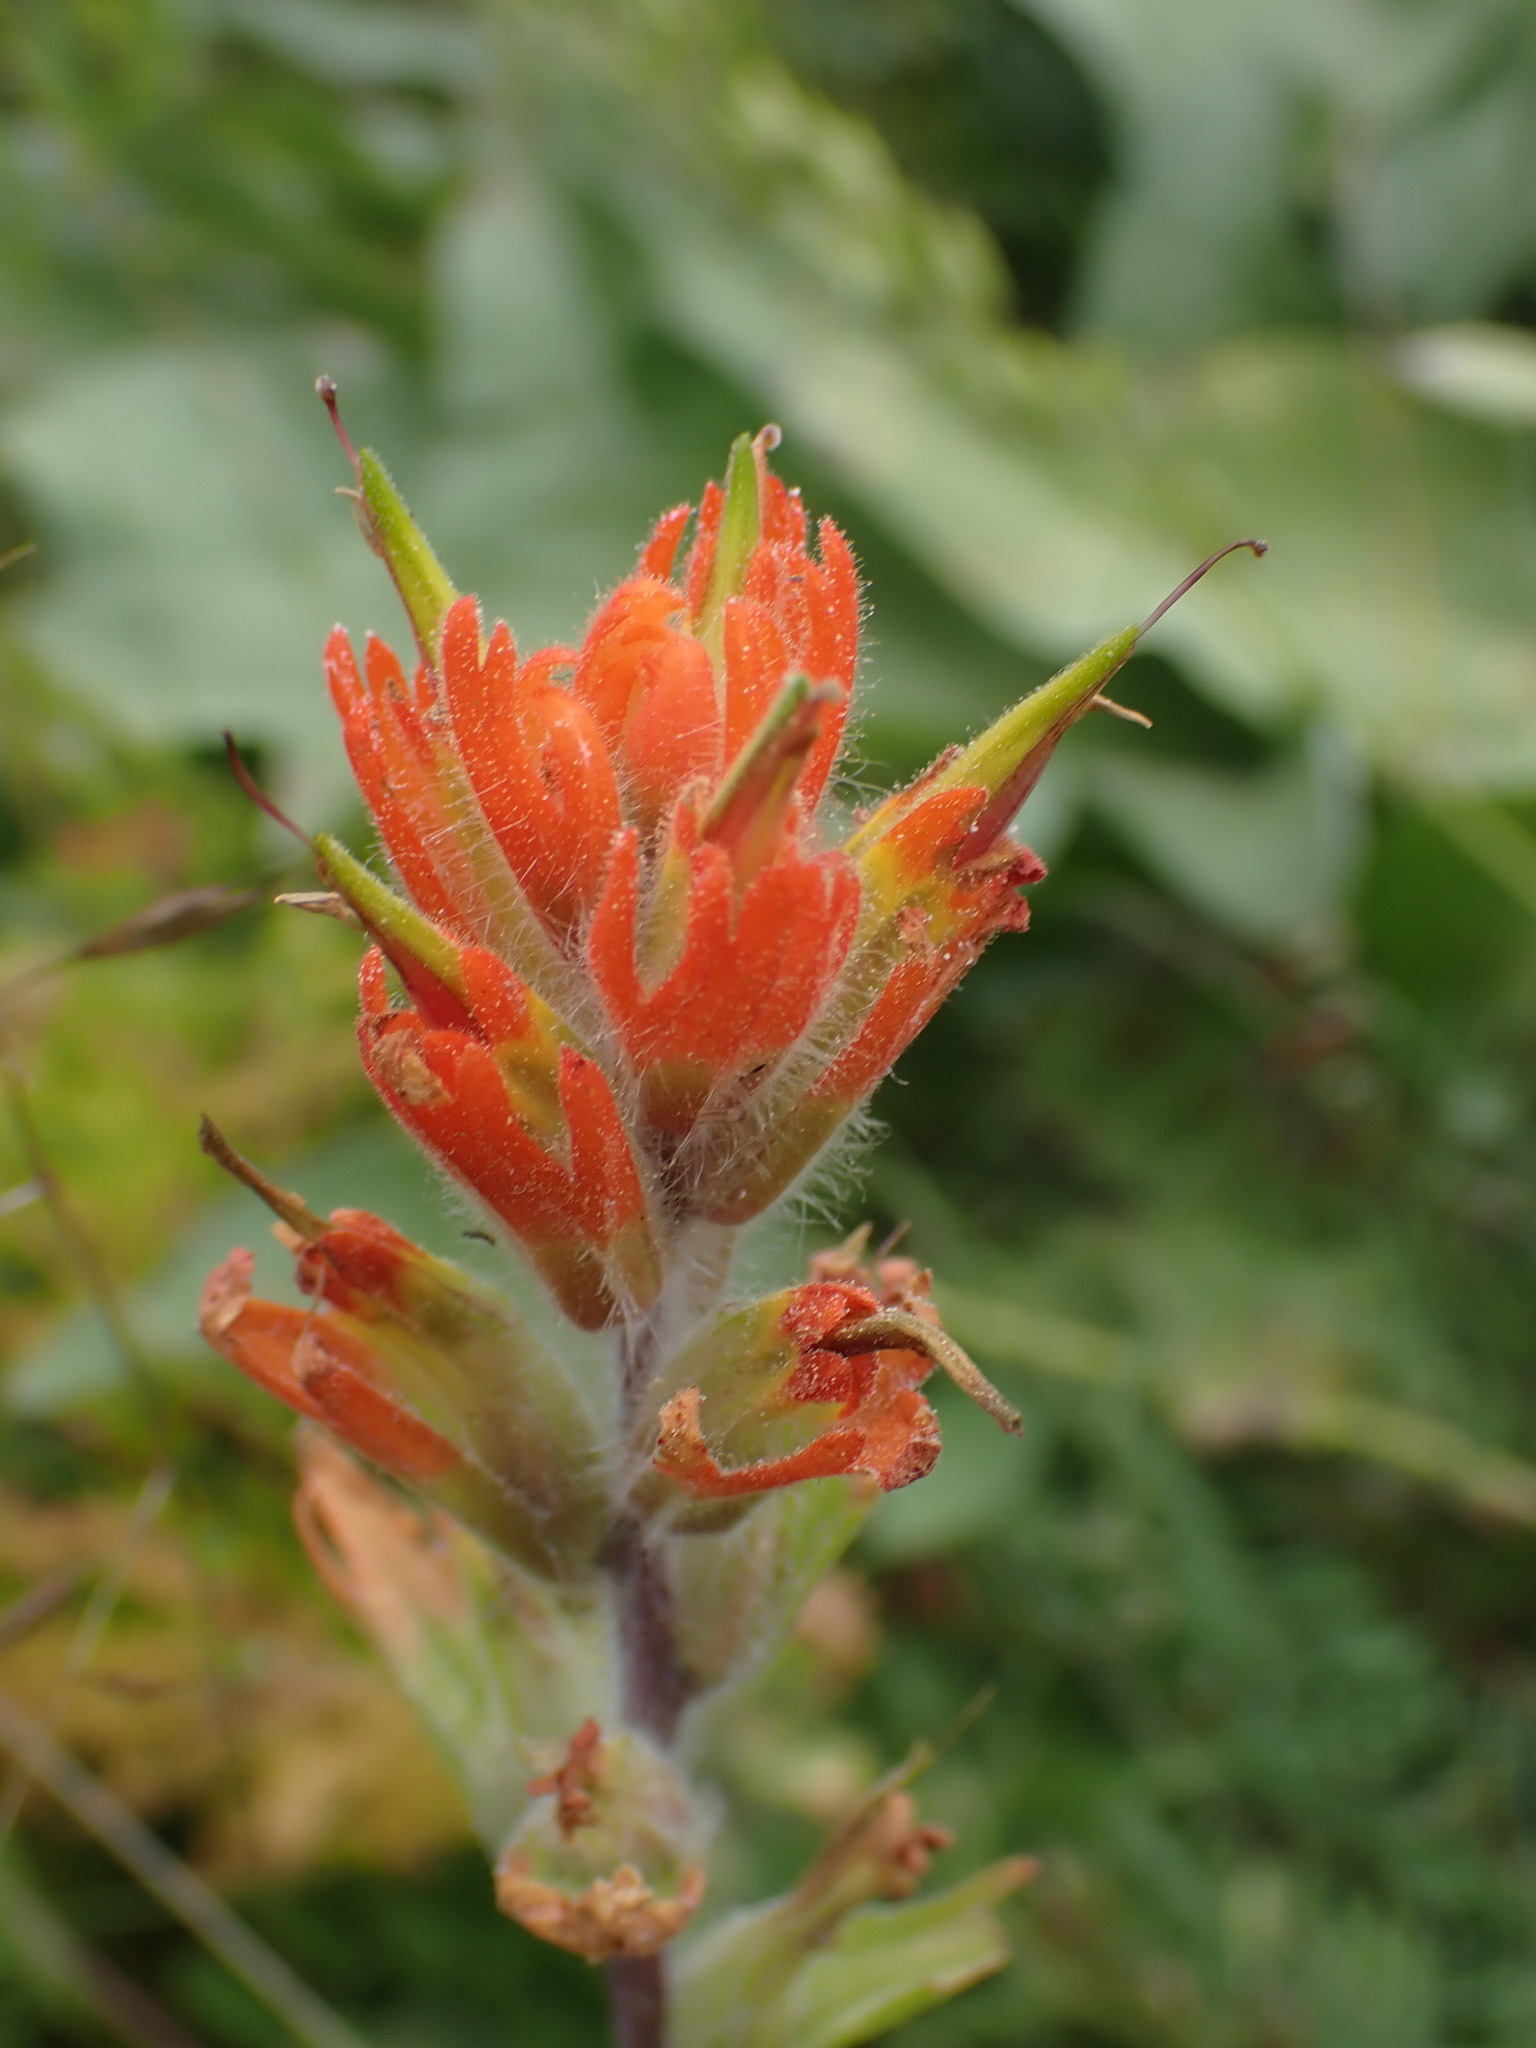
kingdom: Plantae
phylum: Tracheophyta
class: Magnoliopsida
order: Lamiales
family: Orobanchaceae
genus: Castilleja
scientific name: Castilleja hispida
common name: Bristly paintbrush
